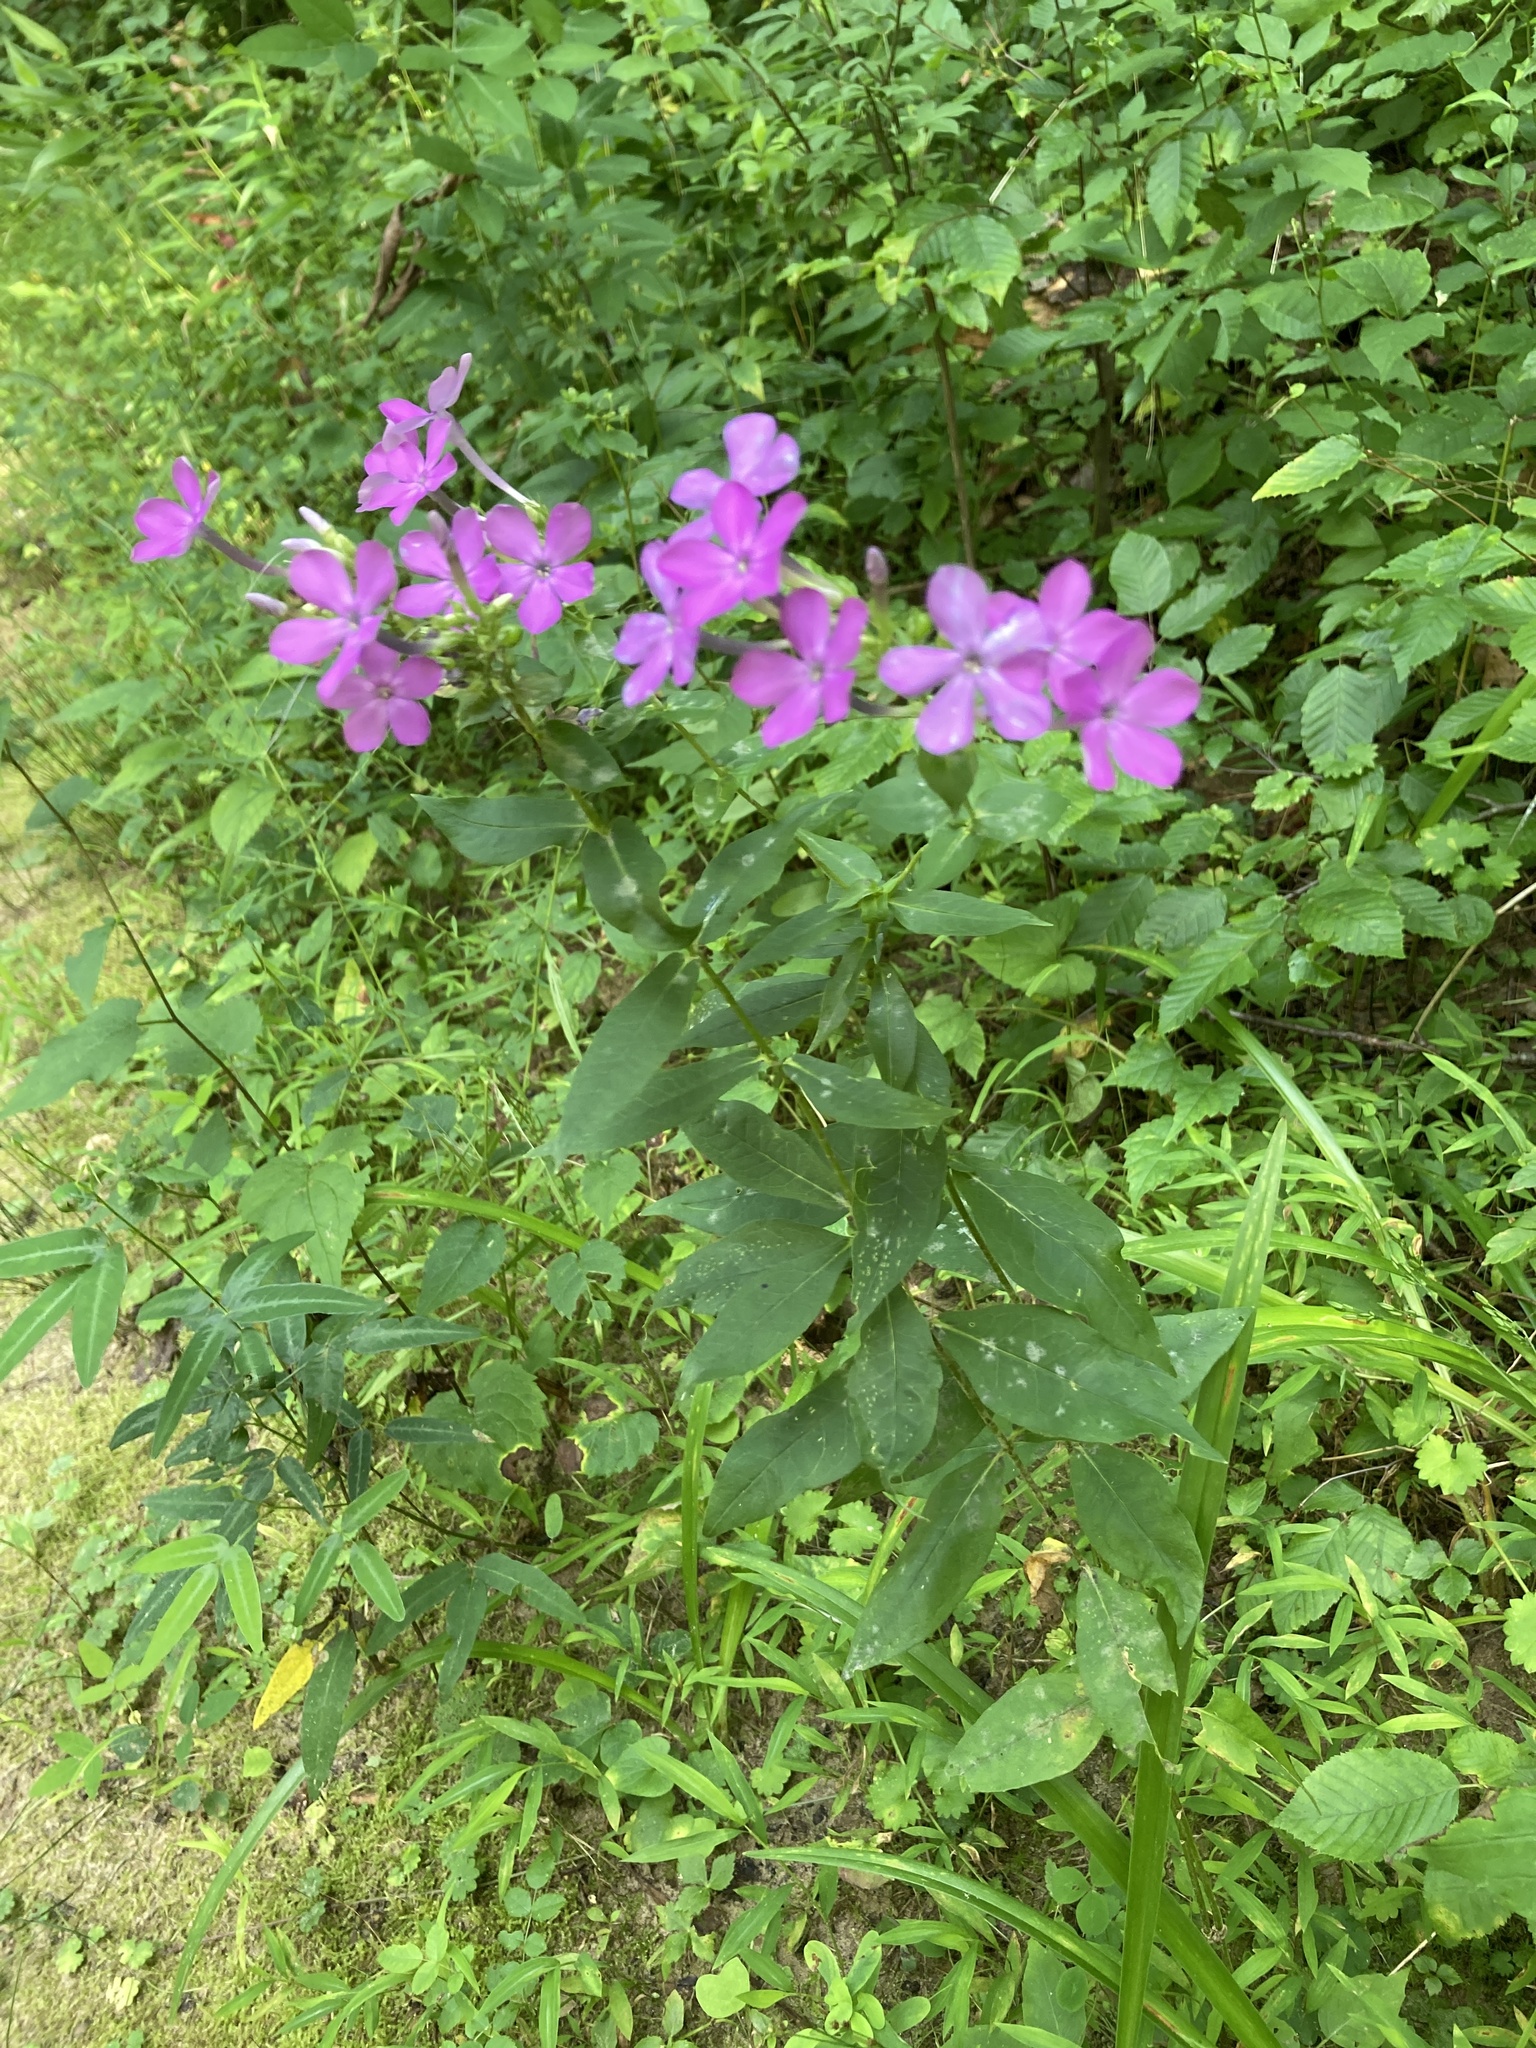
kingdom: Plantae
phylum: Tracheophyta
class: Magnoliopsida
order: Ericales
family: Polemoniaceae
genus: Phlox
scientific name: Phlox paniculata
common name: Fall phlox
